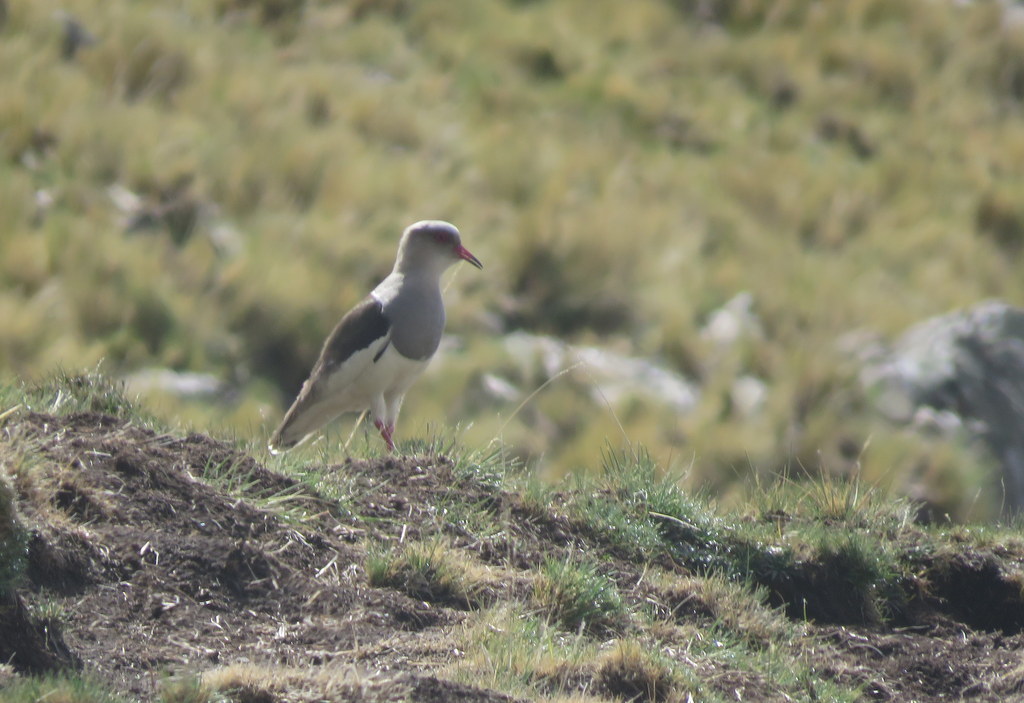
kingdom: Animalia
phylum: Chordata
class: Aves
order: Charadriiformes
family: Charadriidae
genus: Vanellus
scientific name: Vanellus resplendens
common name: Andean lapwing
